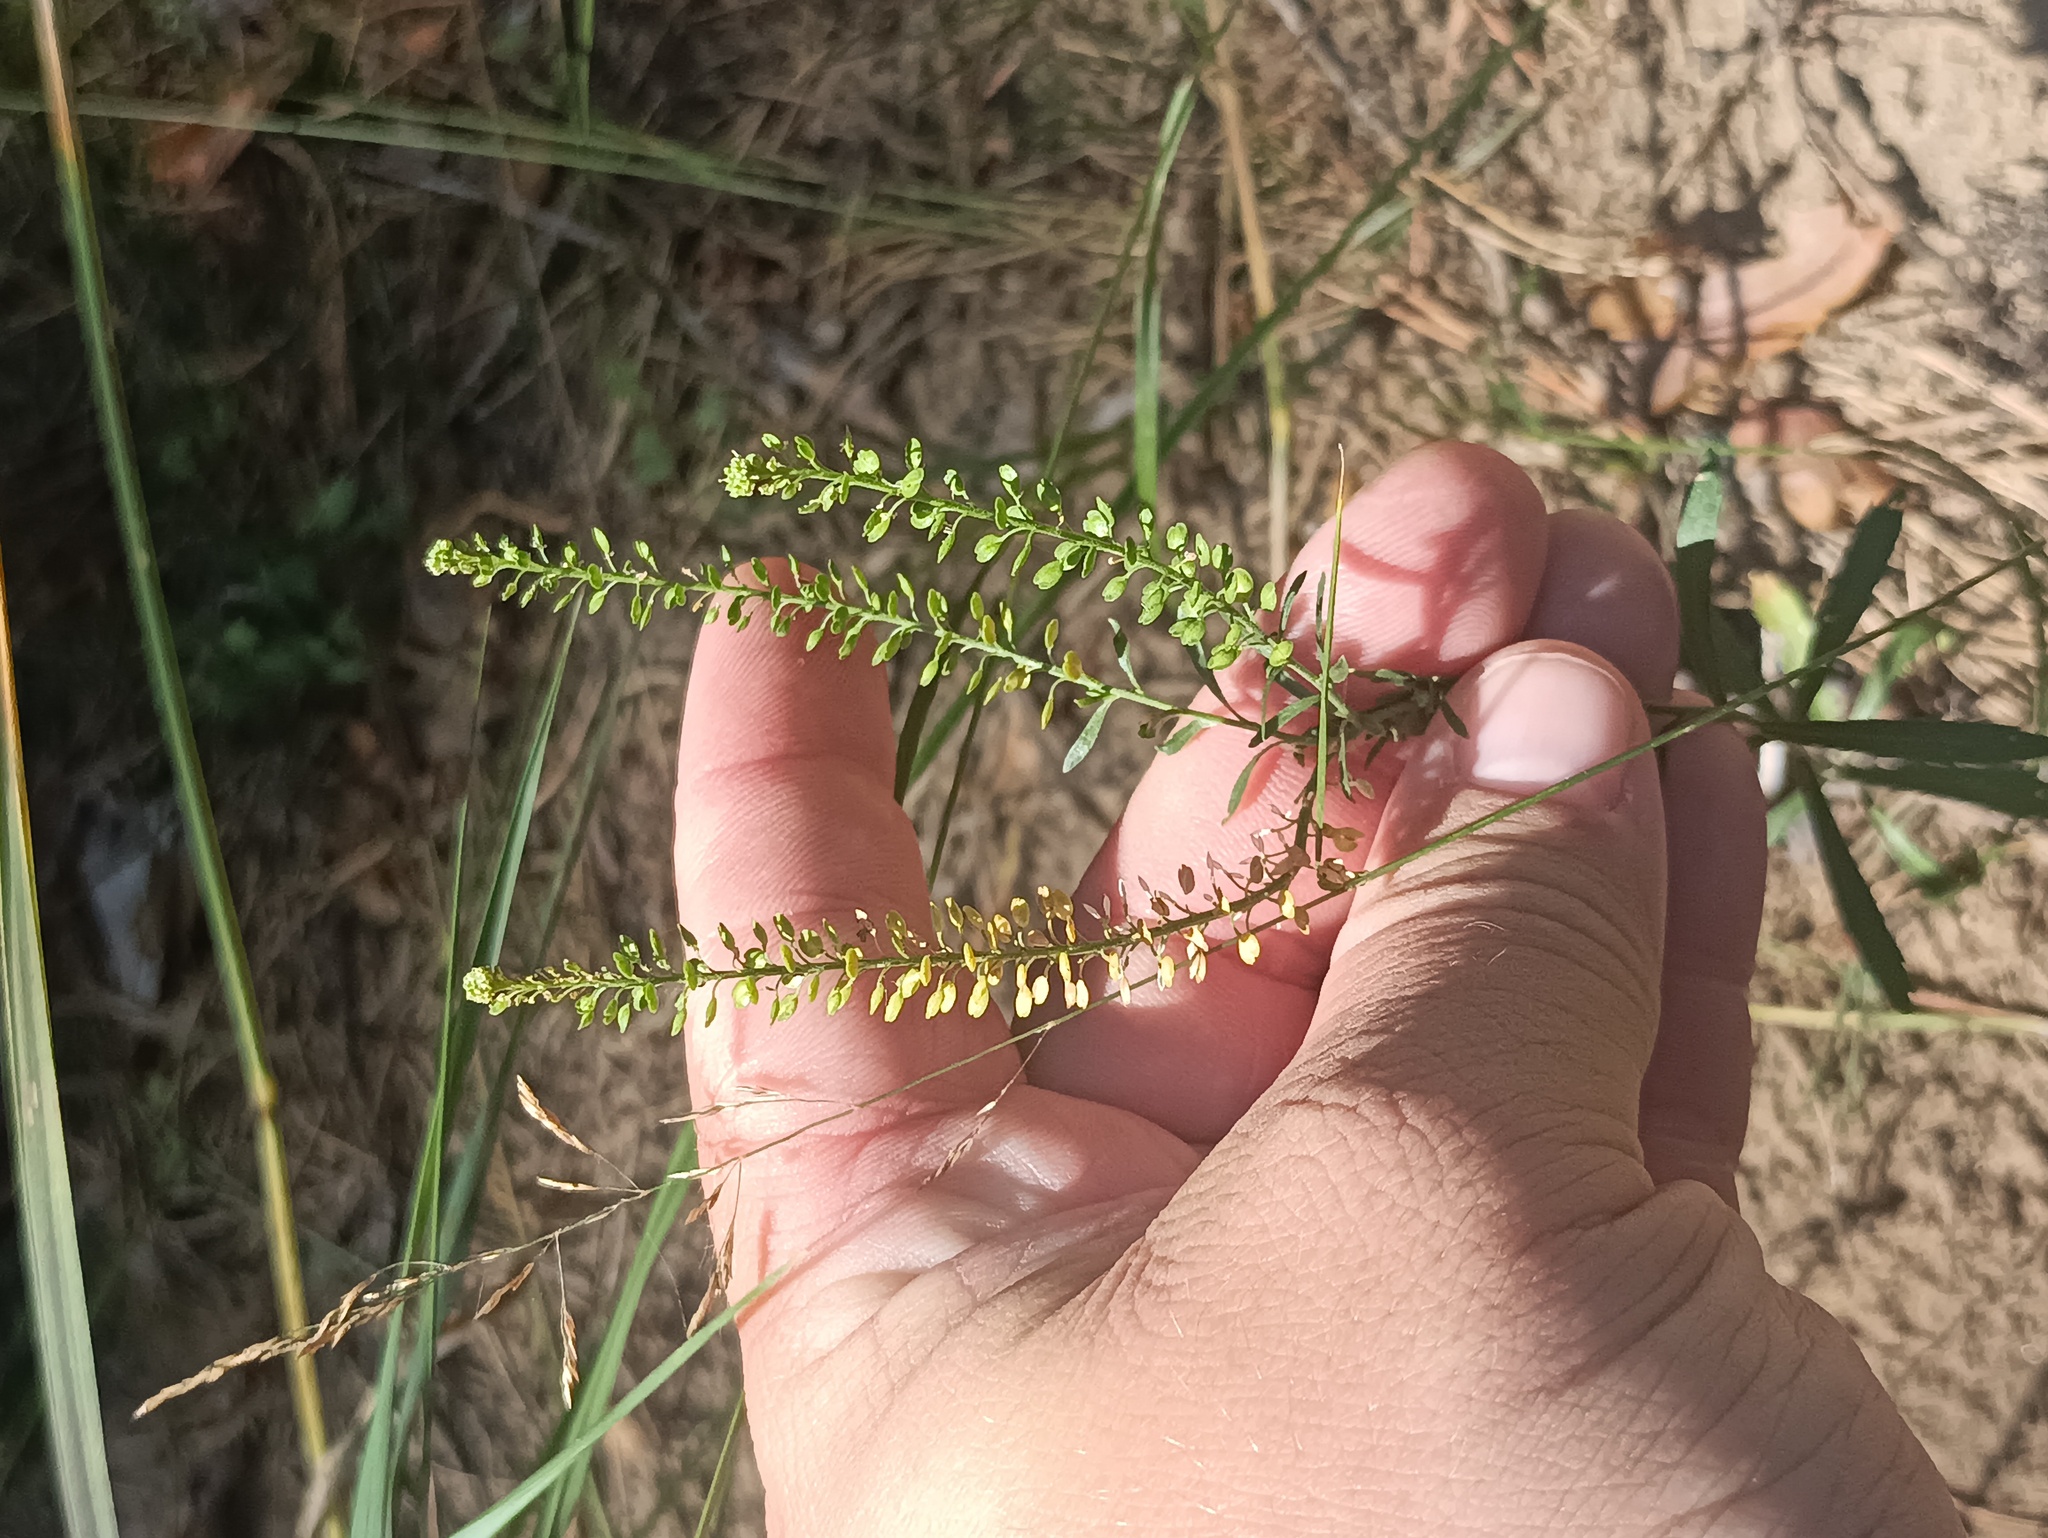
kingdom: Plantae
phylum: Tracheophyta
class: Magnoliopsida
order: Brassicales
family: Brassicaceae
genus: Lepidium
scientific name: Lepidium densiflorum
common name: Miner's pepperwort
